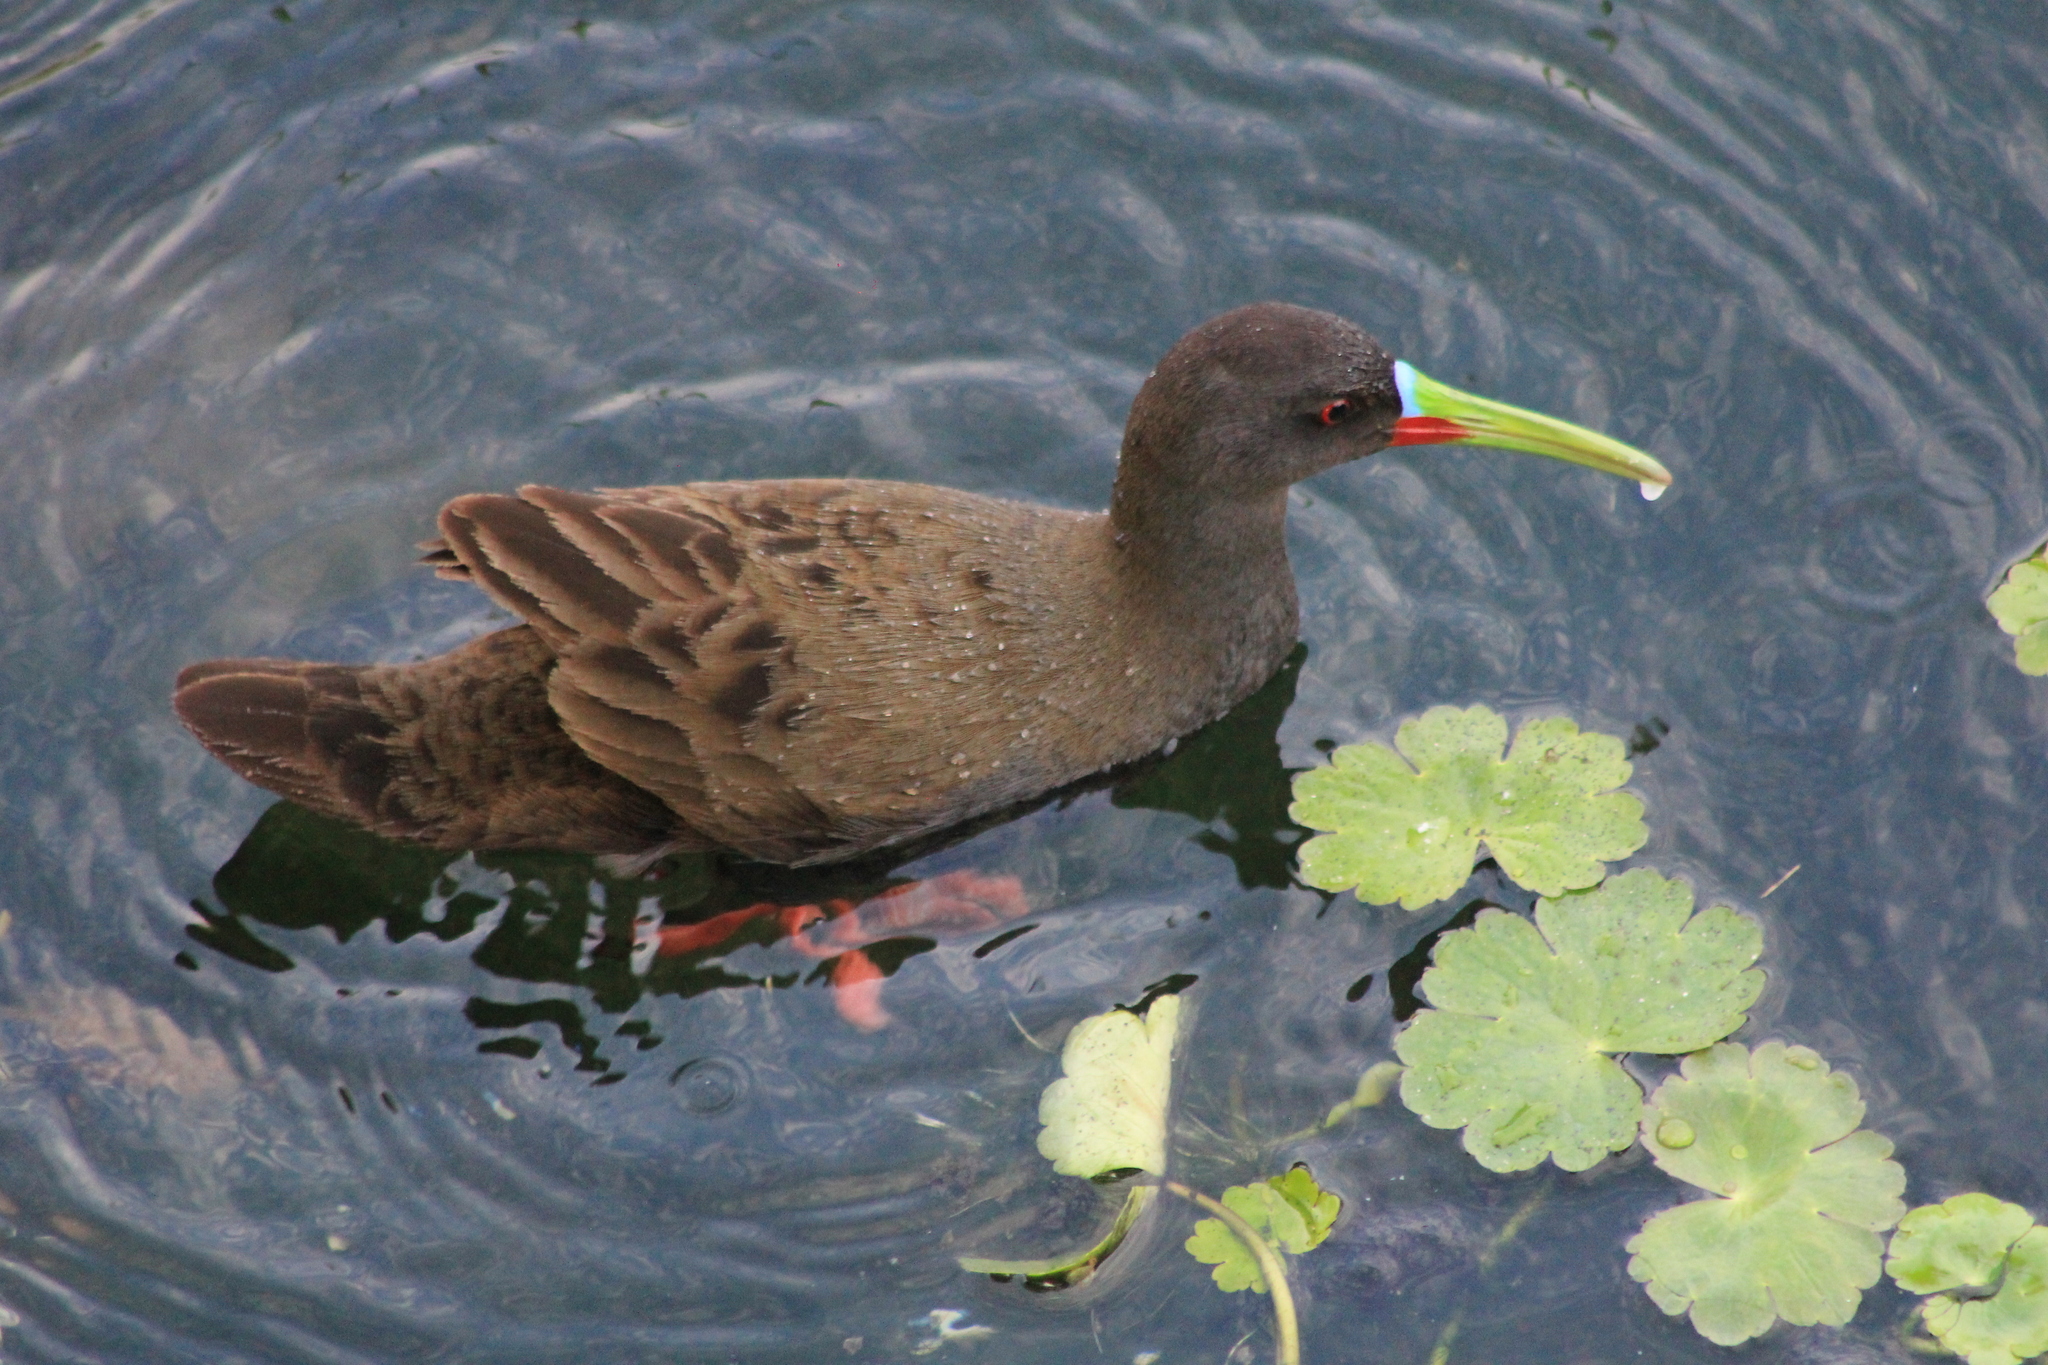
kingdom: Animalia
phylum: Chordata
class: Aves
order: Gruiformes
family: Rallidae
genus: Pardirallus
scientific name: Pardirallus sanguinolentus
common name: Plumbeous rail
